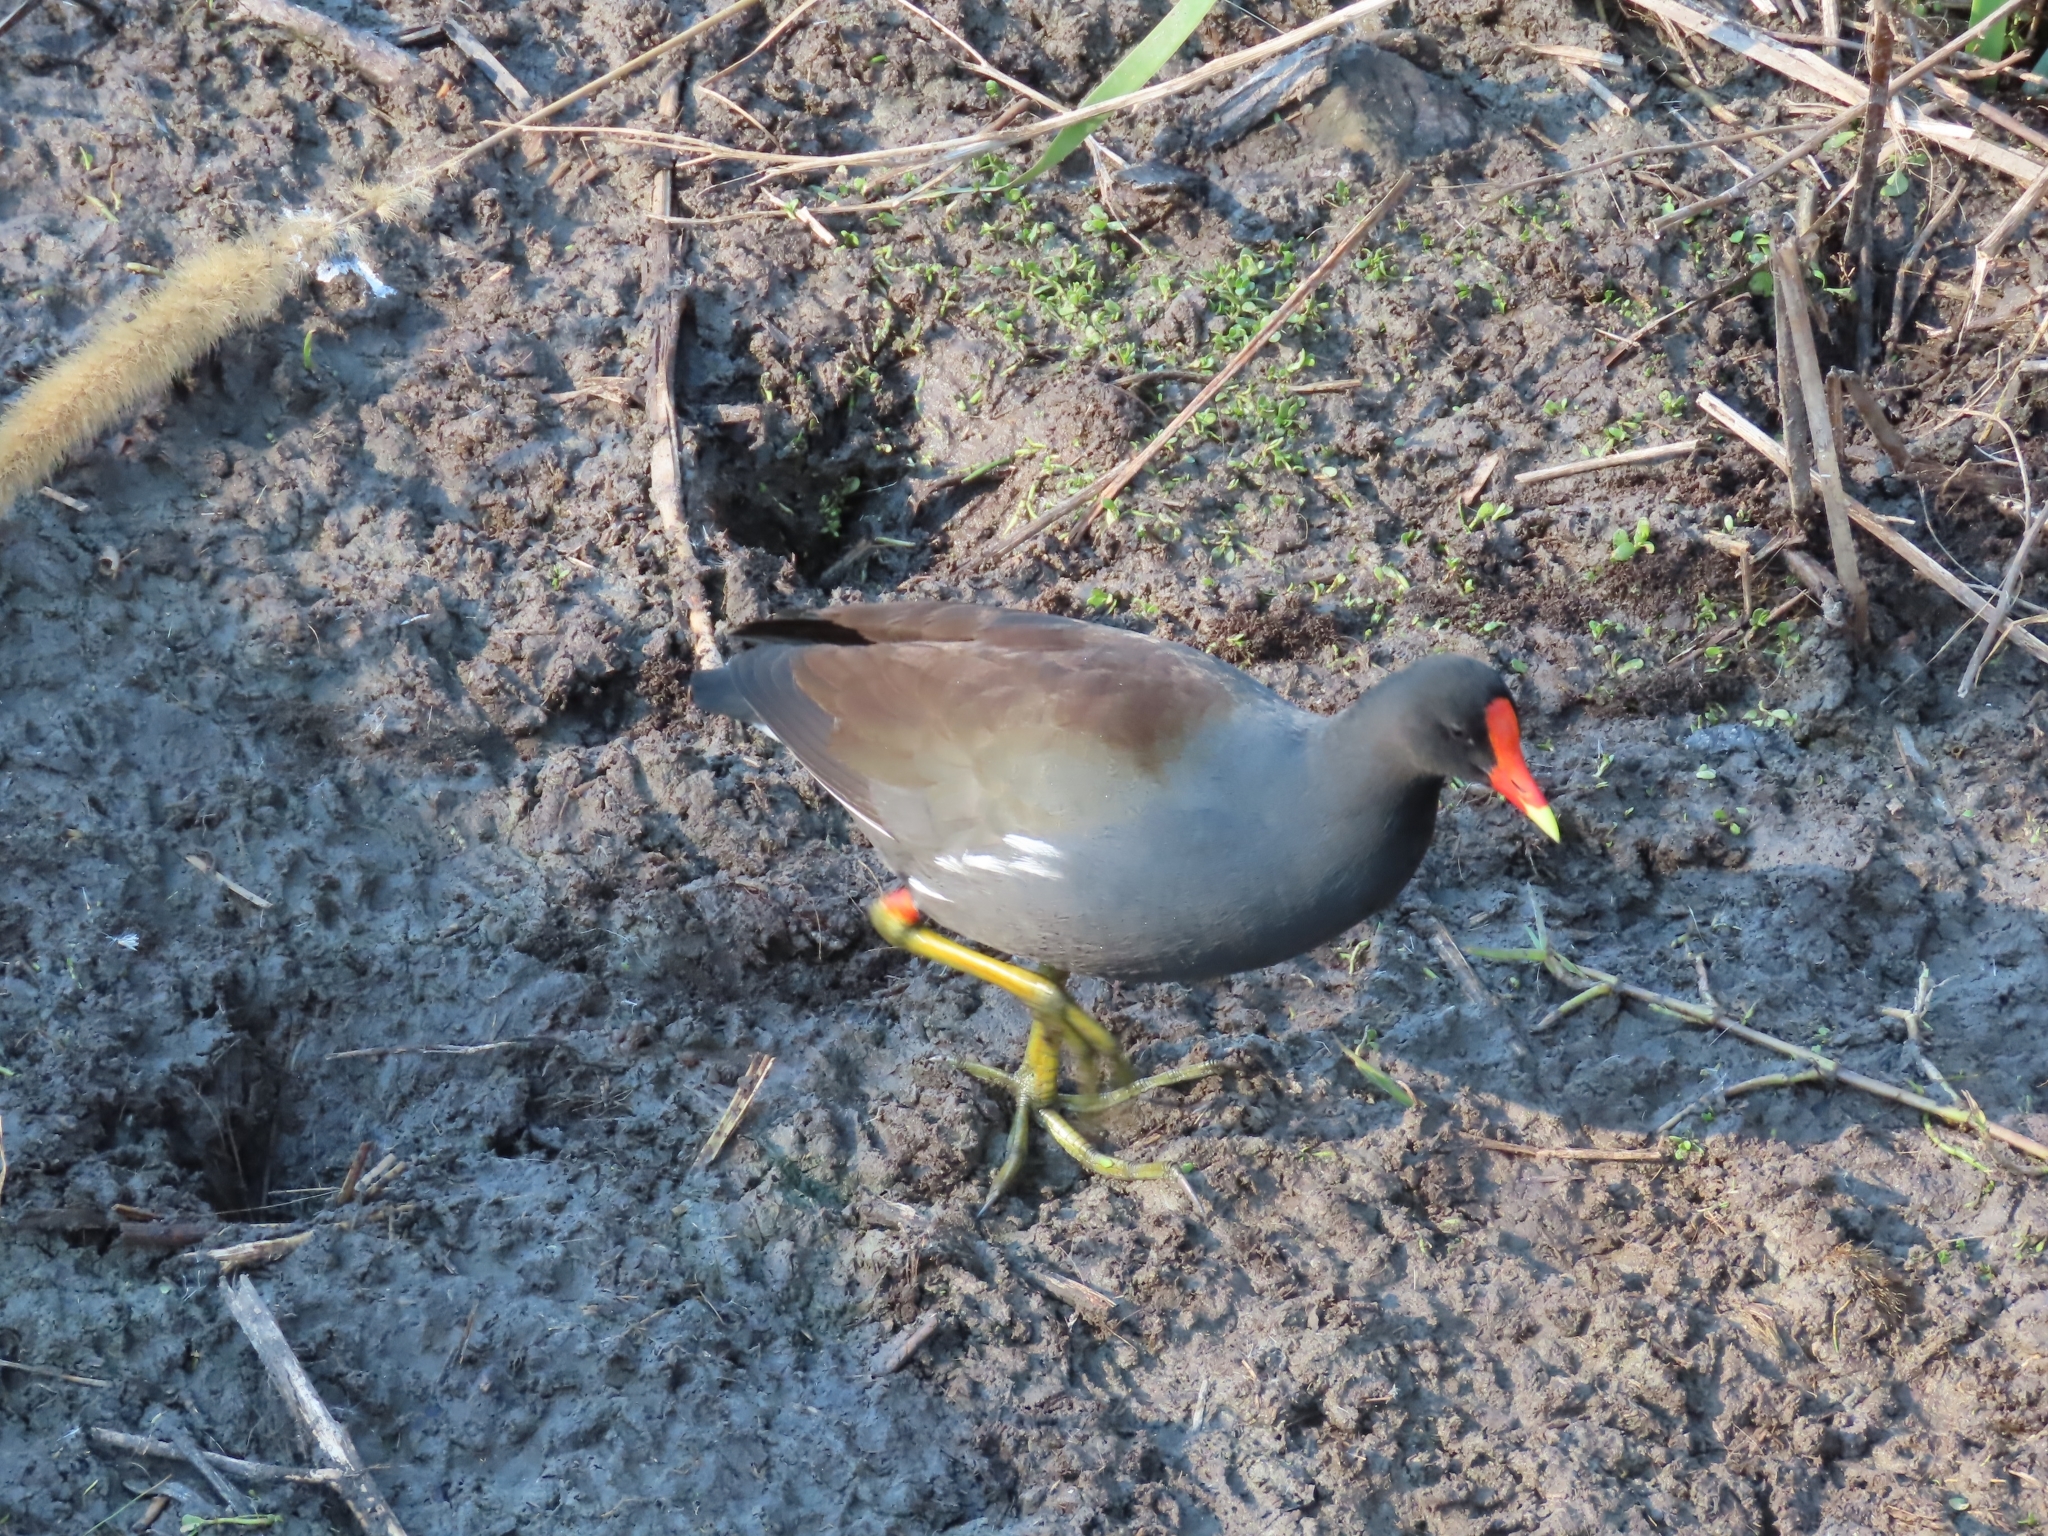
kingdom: Animalia
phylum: Chordata
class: Aves
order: Gruiformes
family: Rallidae
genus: Gallinula
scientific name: Gallinula chloropus
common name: Common moorhen
